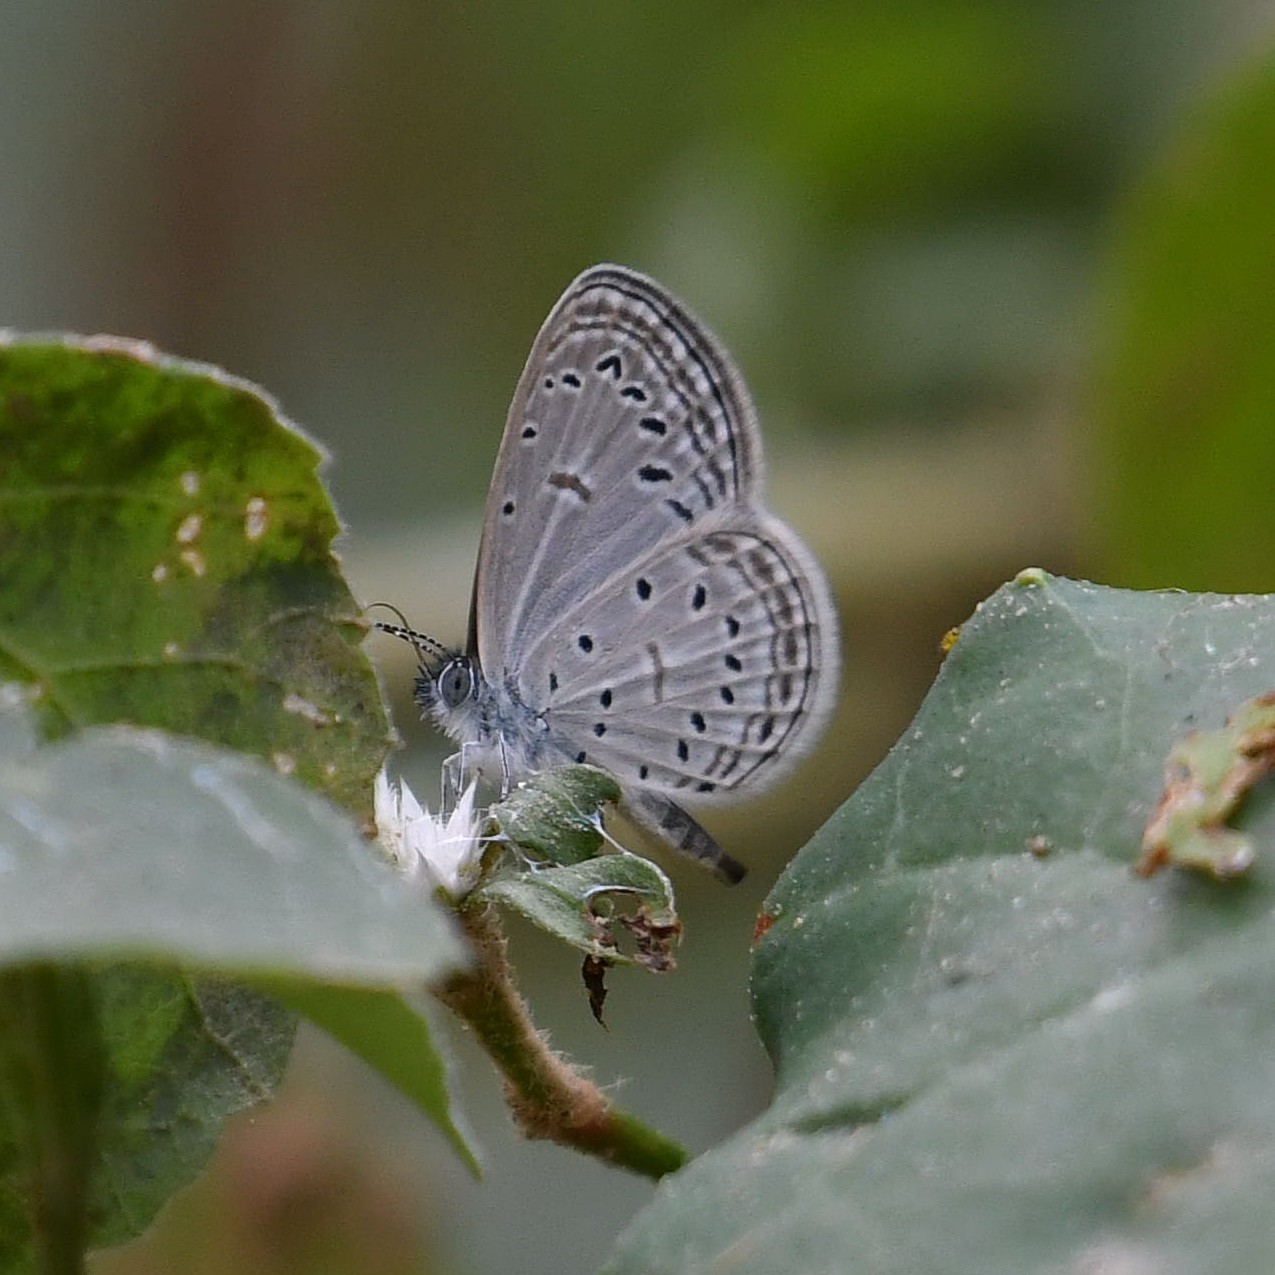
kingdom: Animalia
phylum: Arthropoda
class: Insecta
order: Lepidoptera
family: Lycaenidae
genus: Zizula
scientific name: Zizula hylax
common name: Gaika blue
